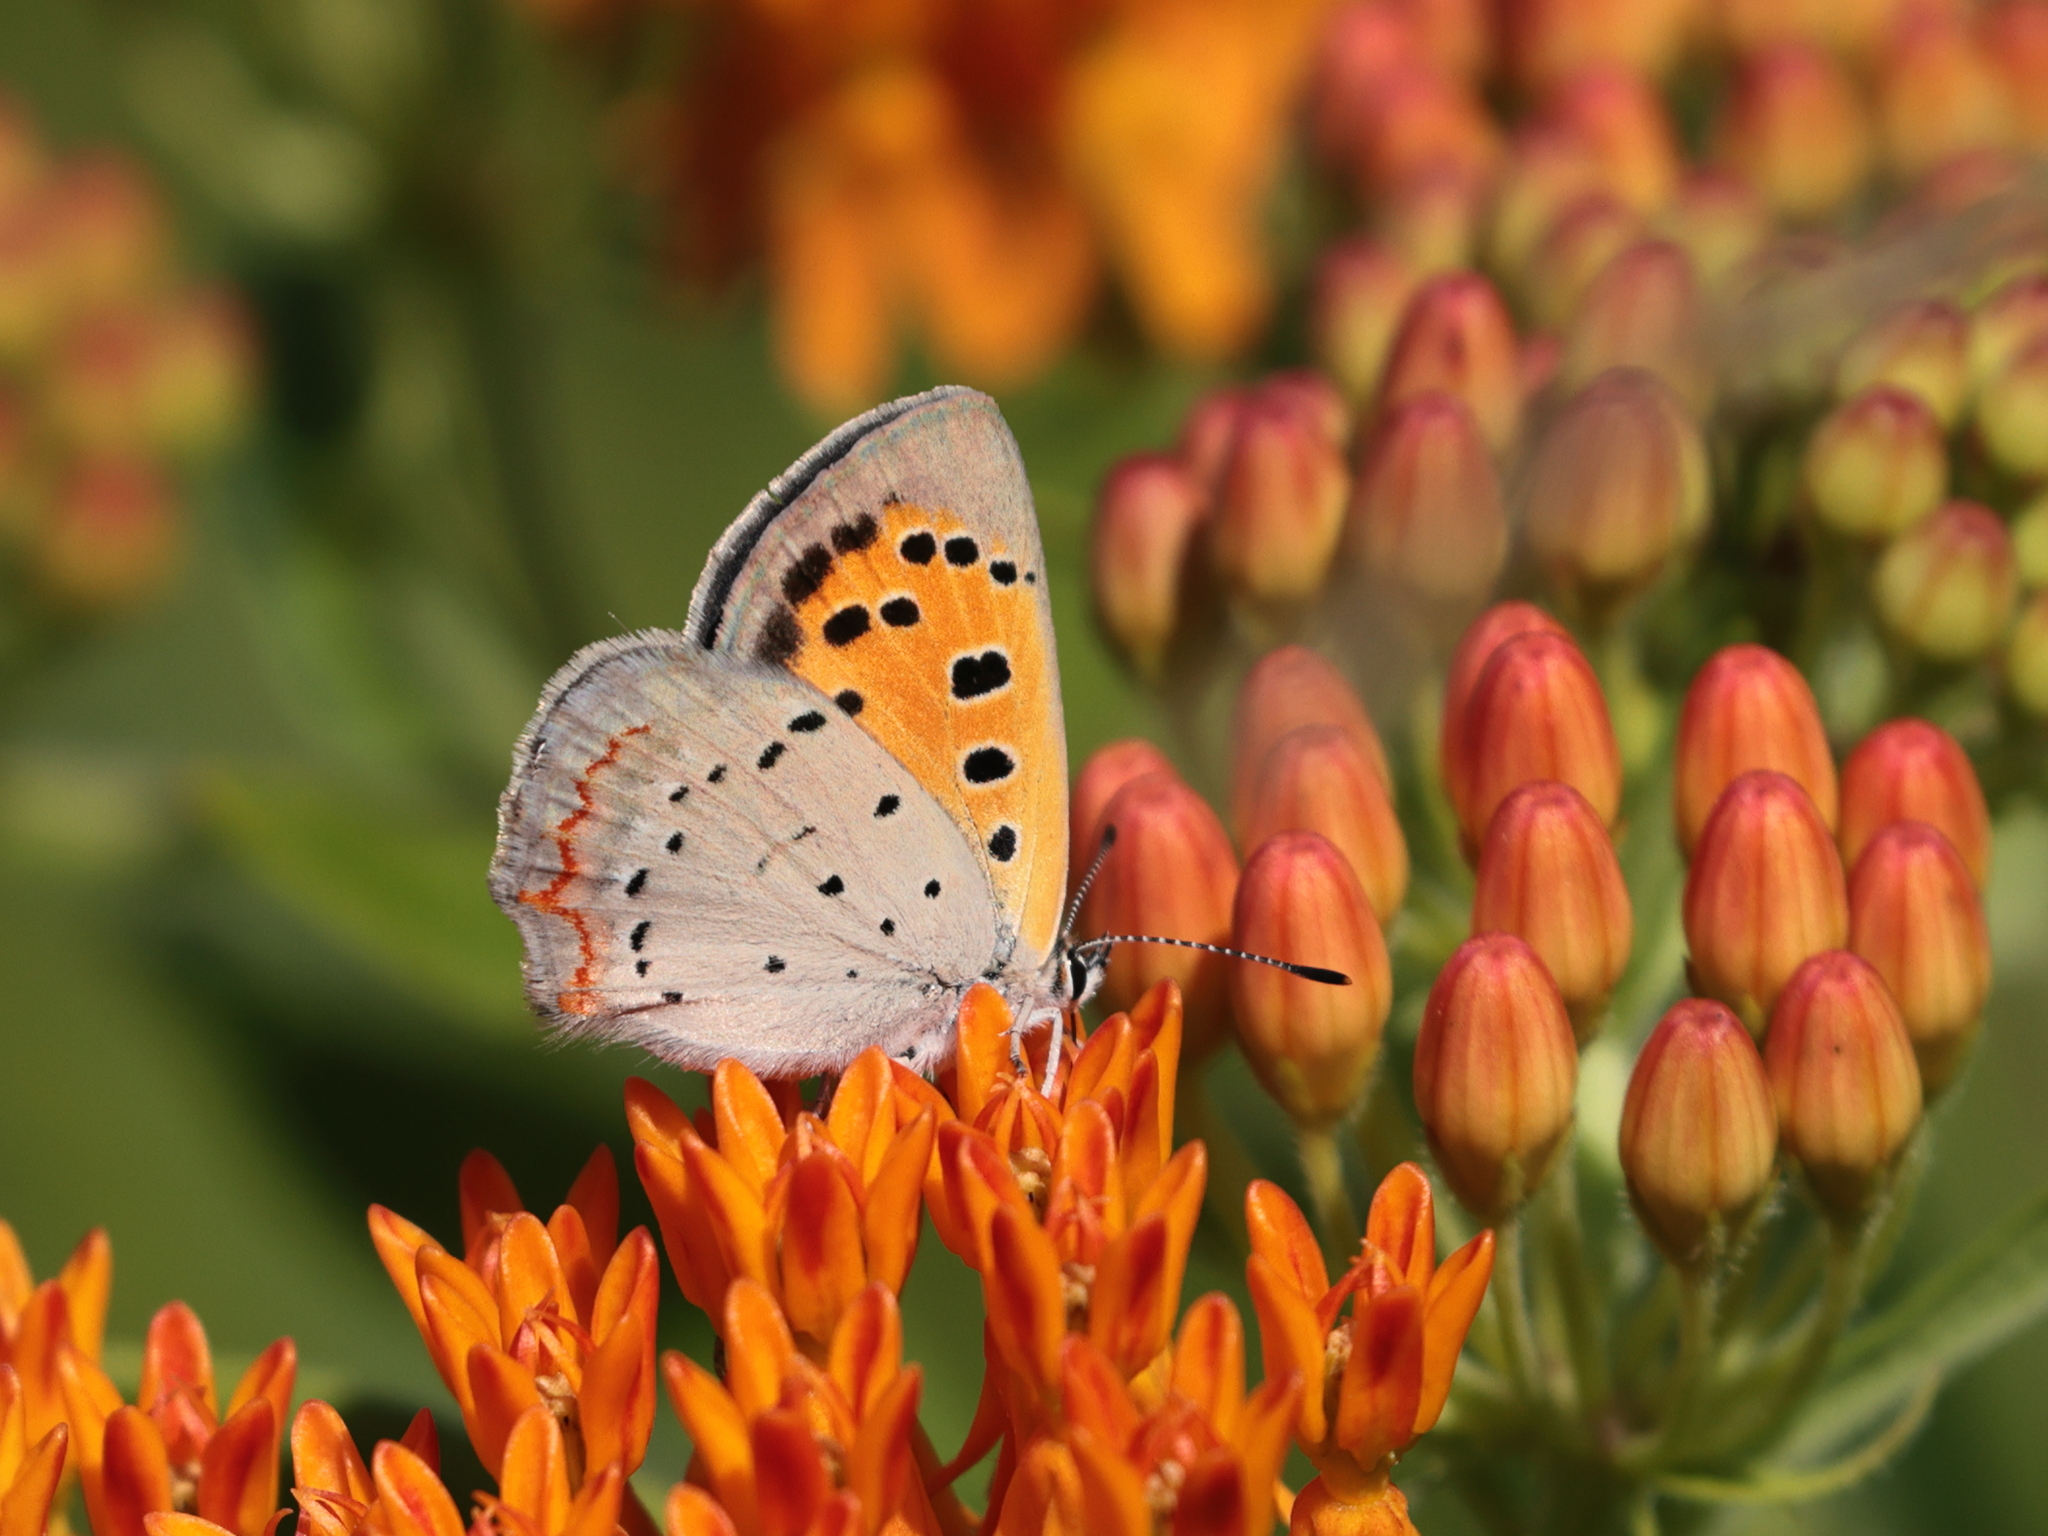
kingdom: Animalia
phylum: Arthropoda
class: Insecta
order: Lepidoptera
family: Lycaenidae
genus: Lycaena
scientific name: Lycaena hypophlaeas
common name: American copper
